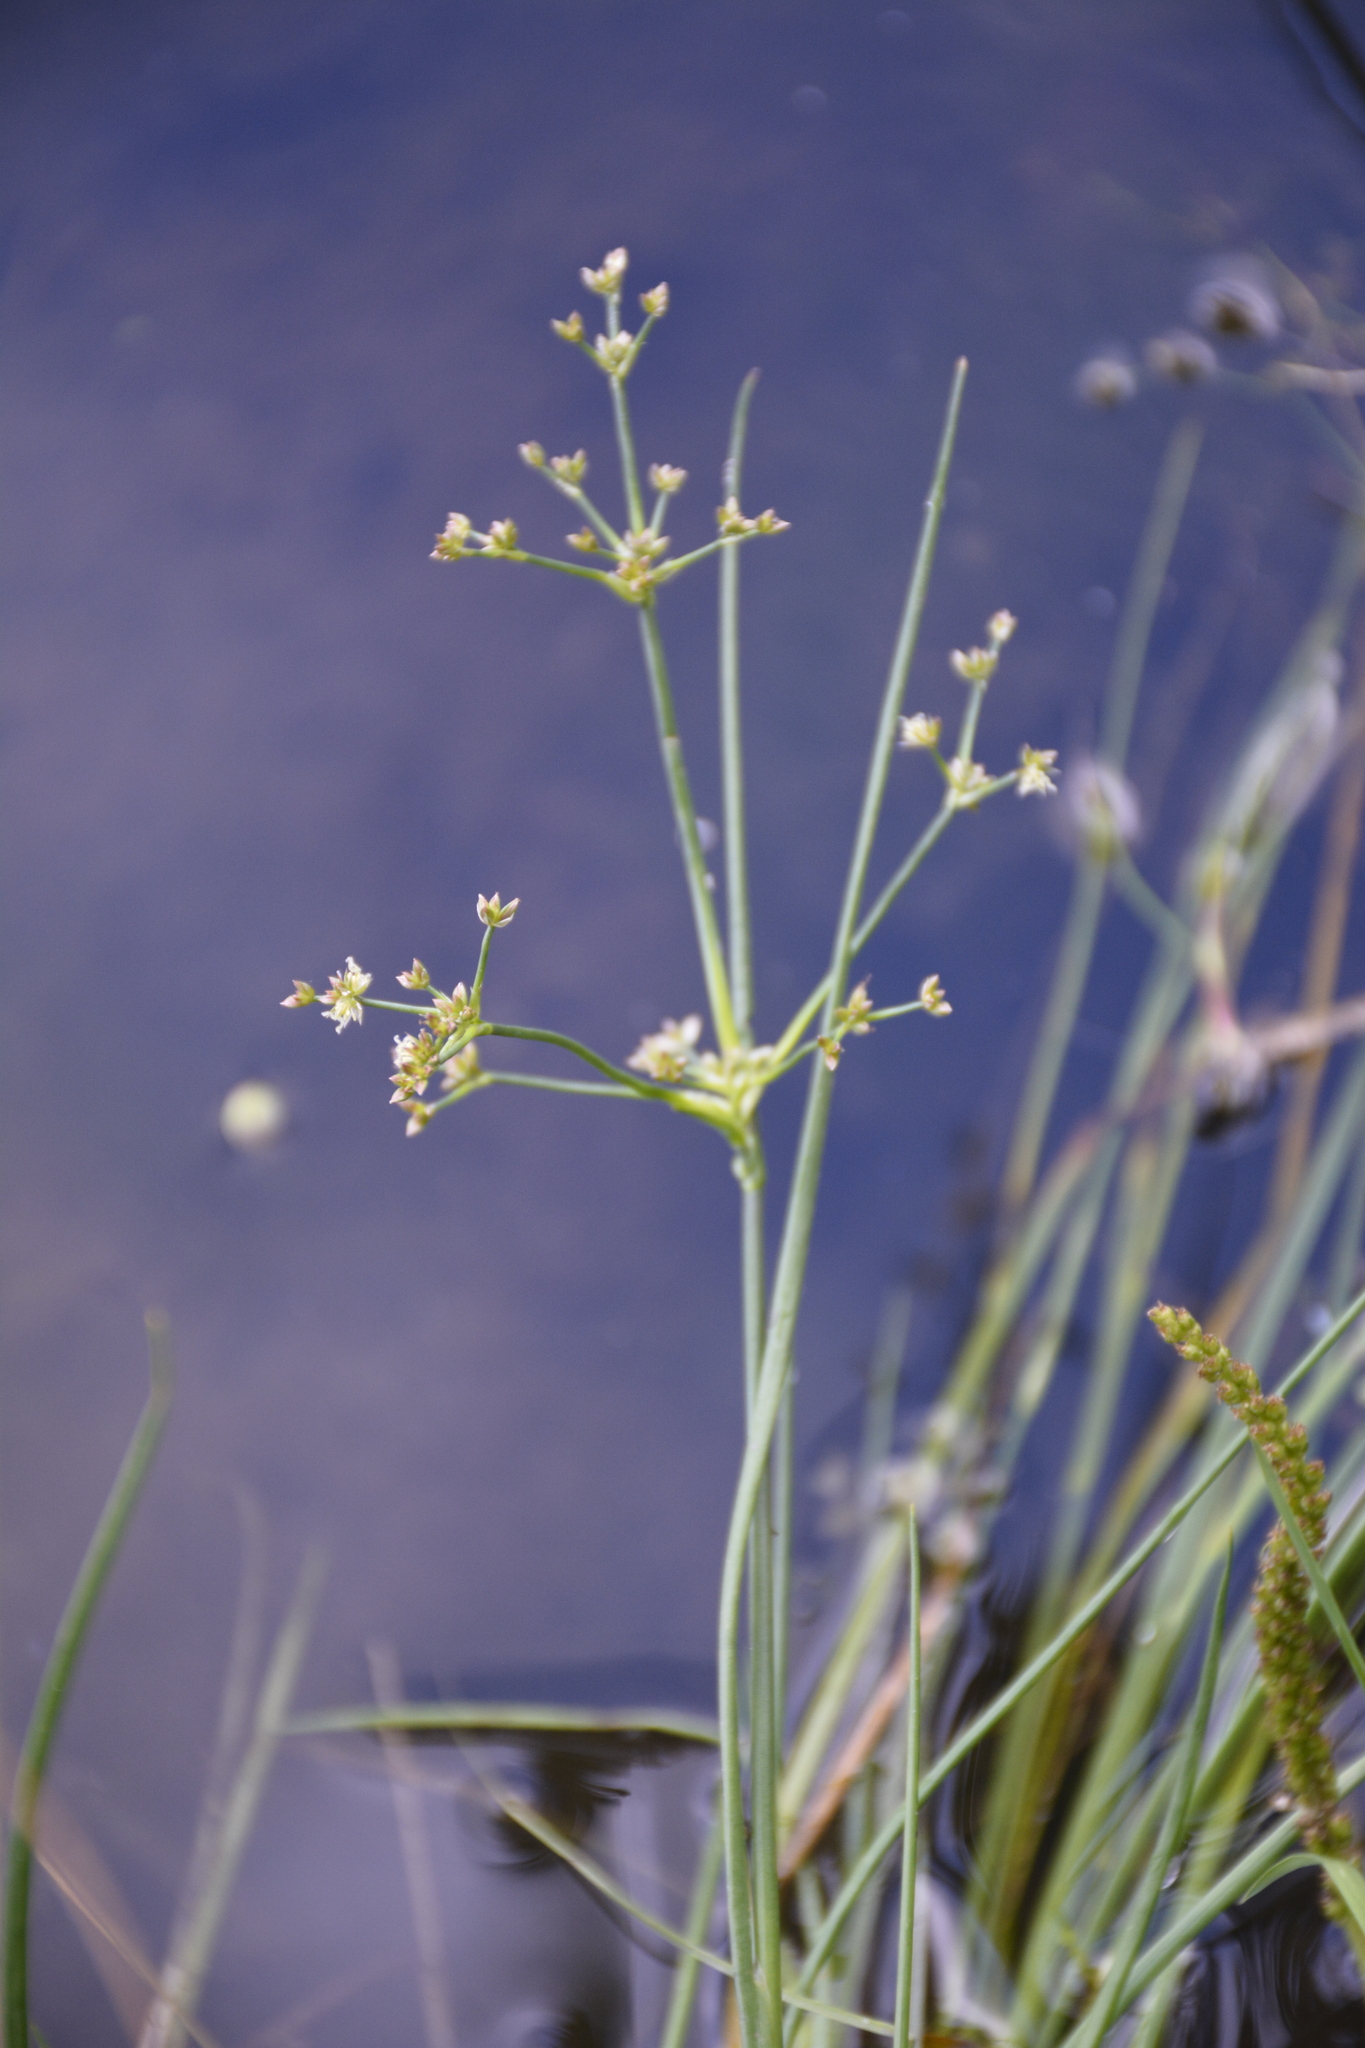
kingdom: Plantae
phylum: Tracheophyta
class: Liliopsida
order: Poales
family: Juncaceae
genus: Juncus
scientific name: Juncus articulatus
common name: Jointed rush
